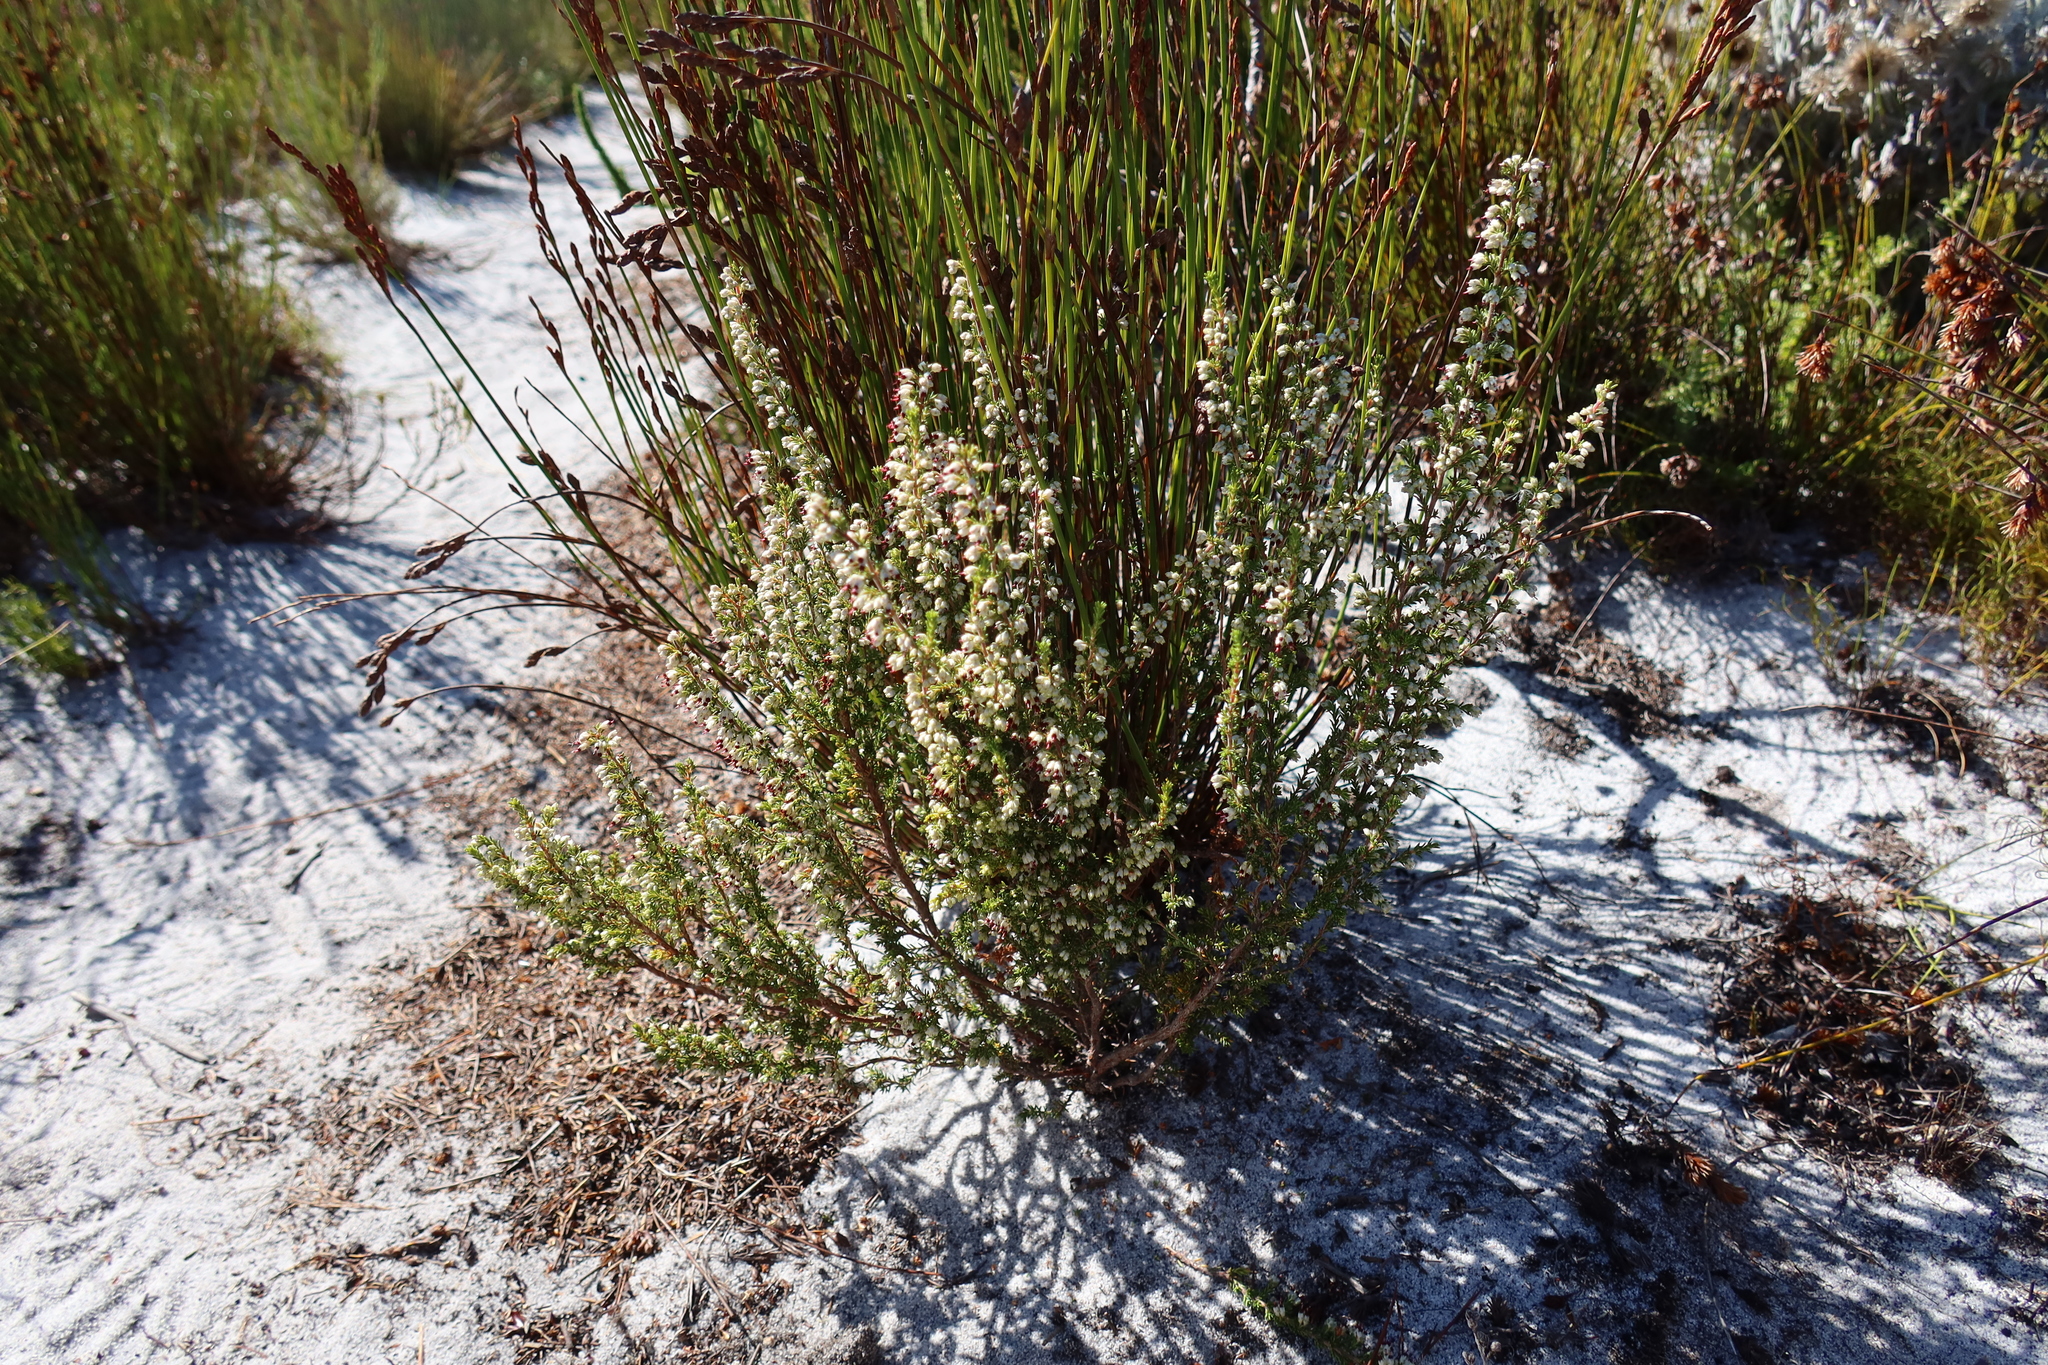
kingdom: Plantae
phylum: Tracheophyta
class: Magnoliopsida
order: Ericales
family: Ericaceae
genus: Erica
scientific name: Erica lasciva
